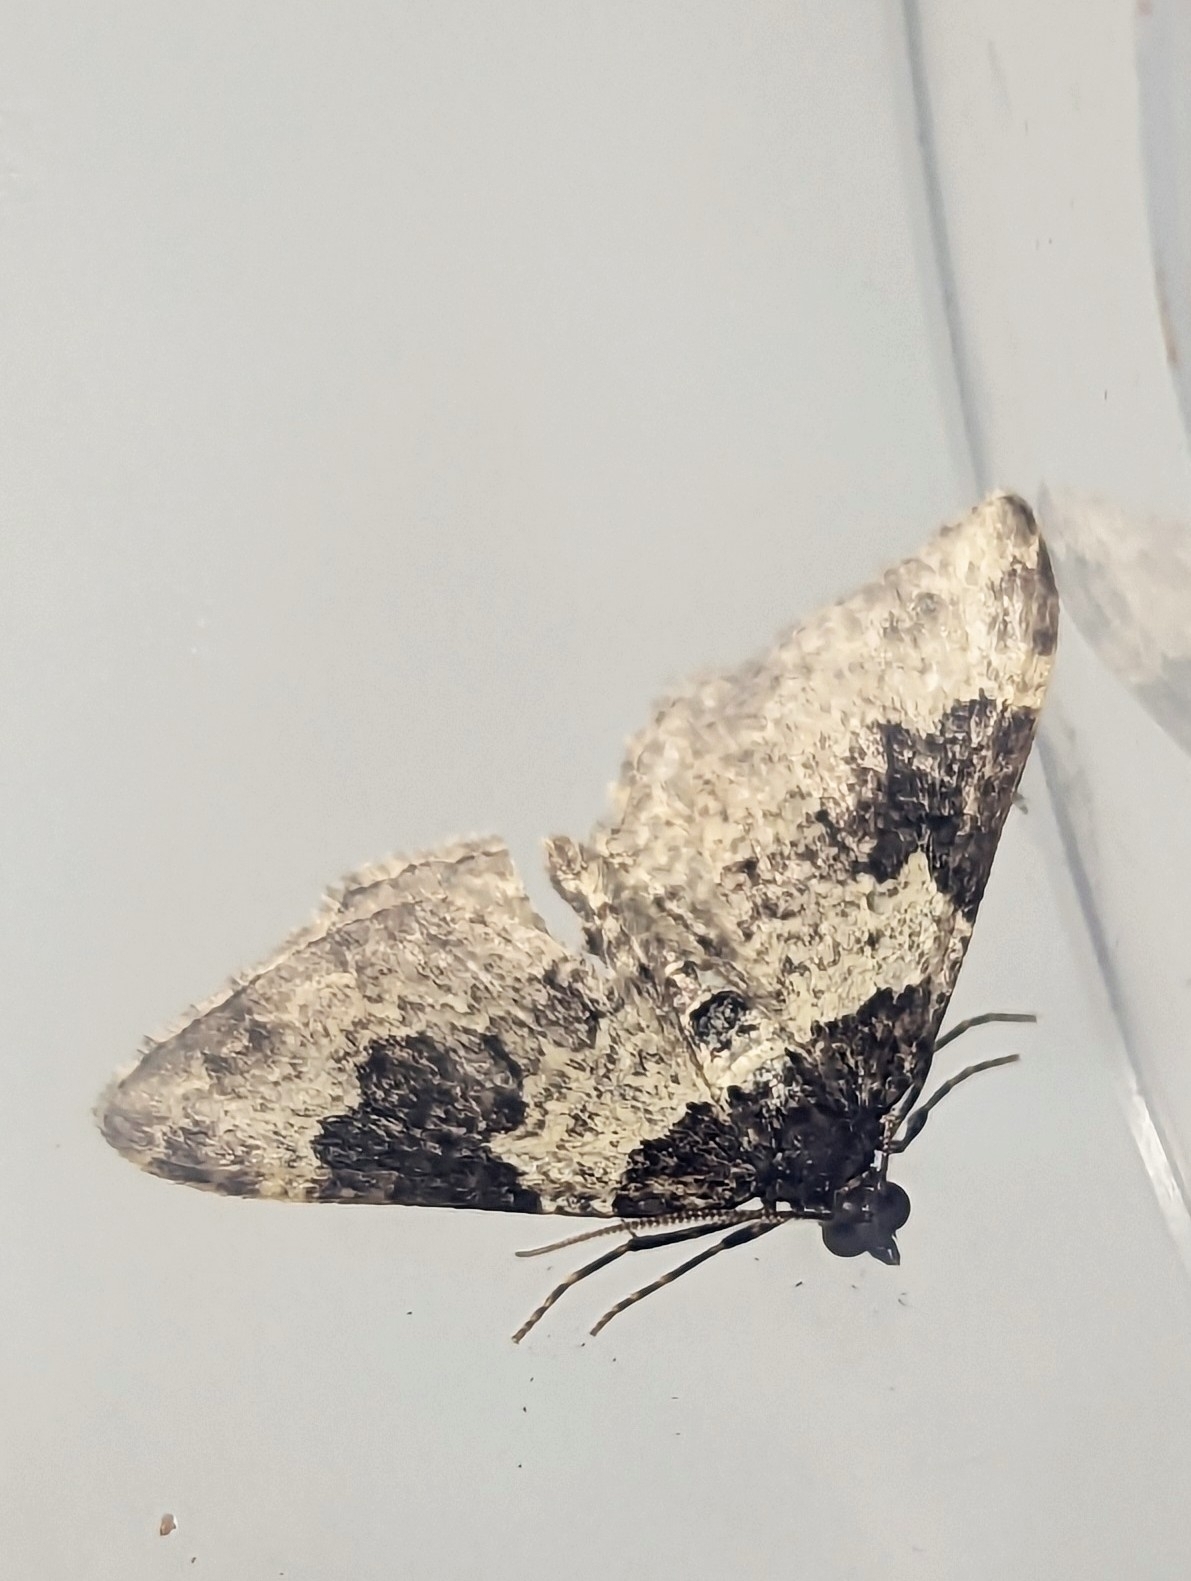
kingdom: Animalia
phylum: Arthropoda
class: Insecta
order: Lepidoptera
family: Geometridae
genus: Xanthorhoe
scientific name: Xanthorhoe fluctuata
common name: Garden carpet
